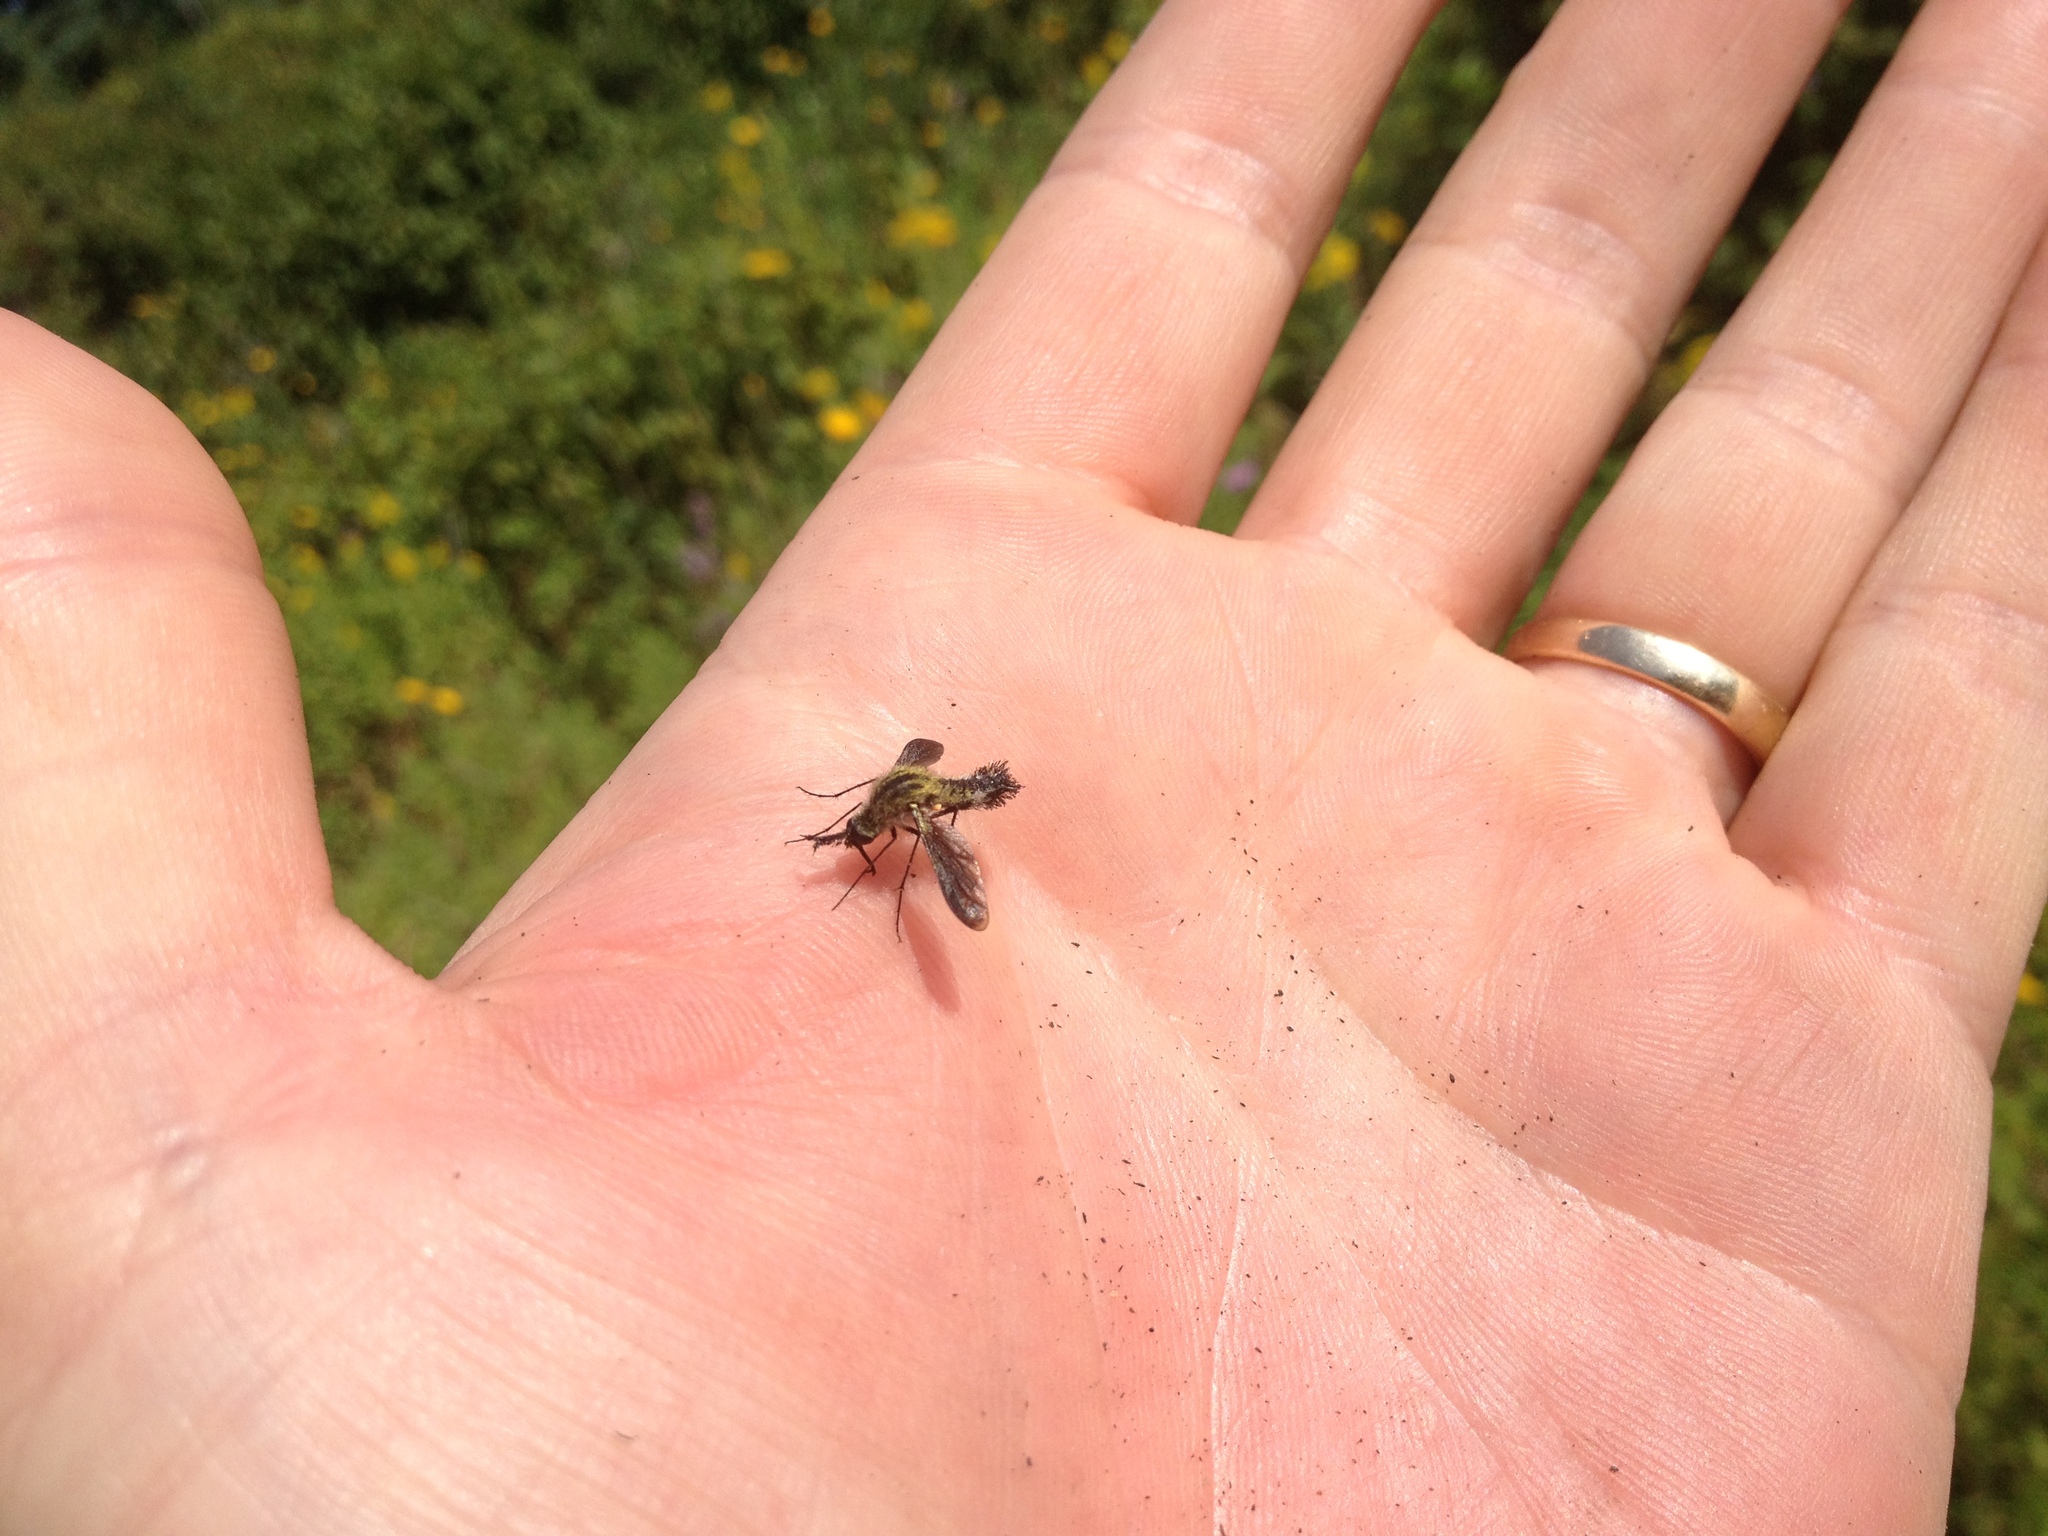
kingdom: Animalia
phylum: Arthropoda
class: Insecta
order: Diptera
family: Bombyliidae
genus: Lepidophora
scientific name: Lepidophora lutea
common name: Hunchback bee fly
